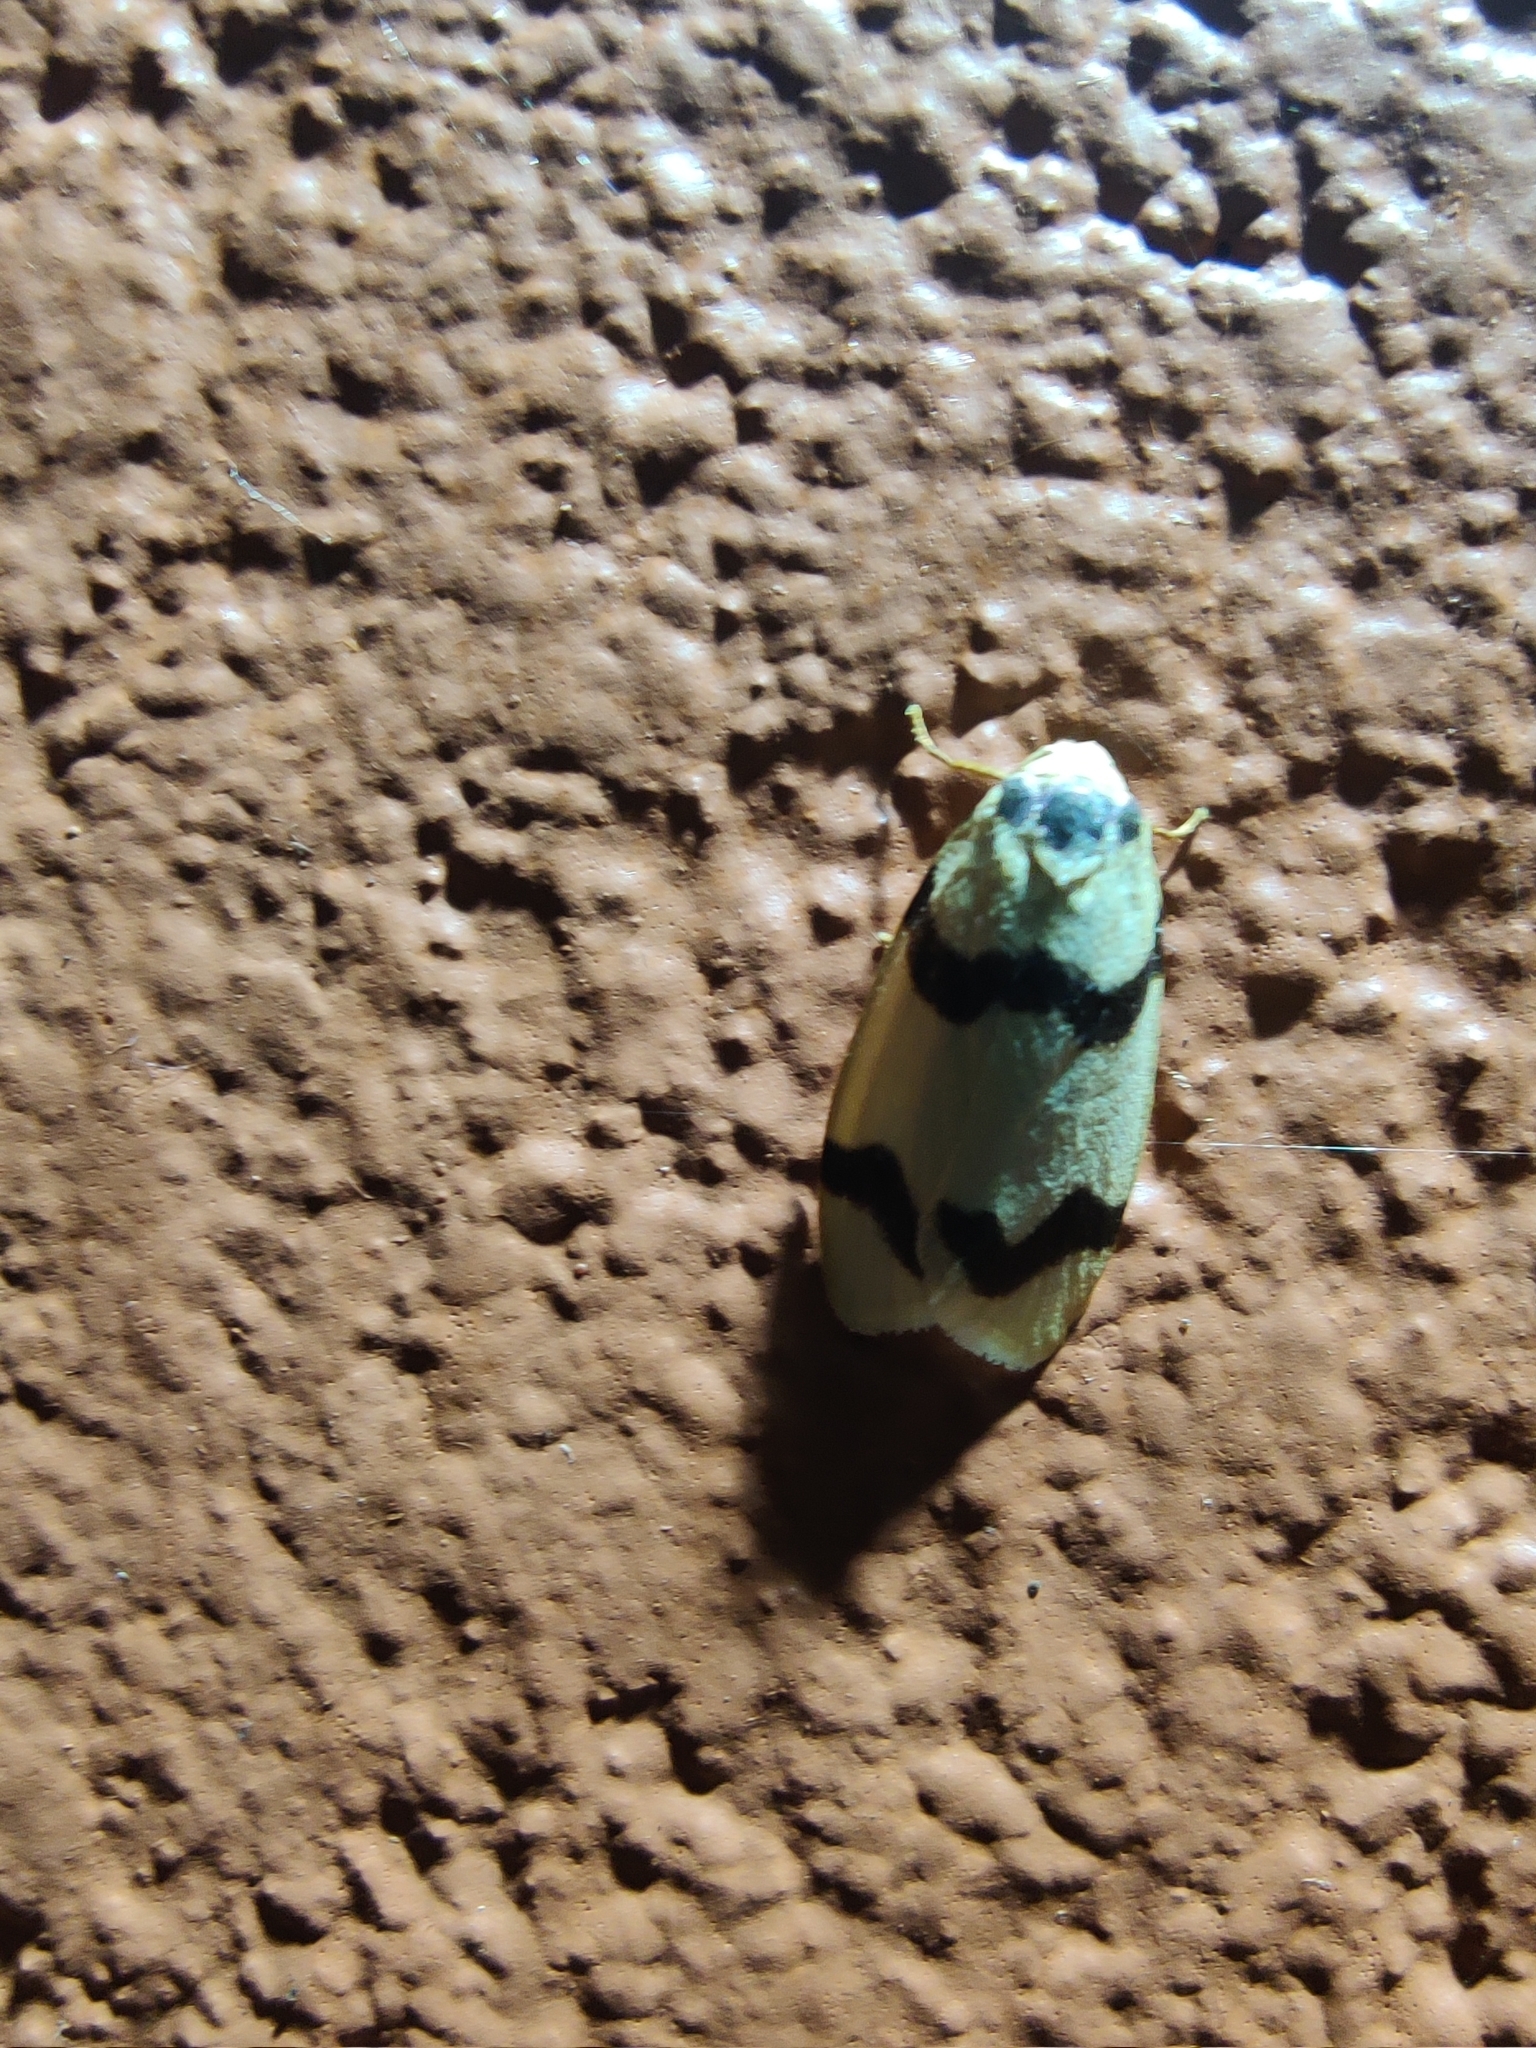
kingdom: Animalia
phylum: Arthropoda
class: Insecta
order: Lepidoptera
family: Erebidae
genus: Padenia
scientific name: Padenia transversa
